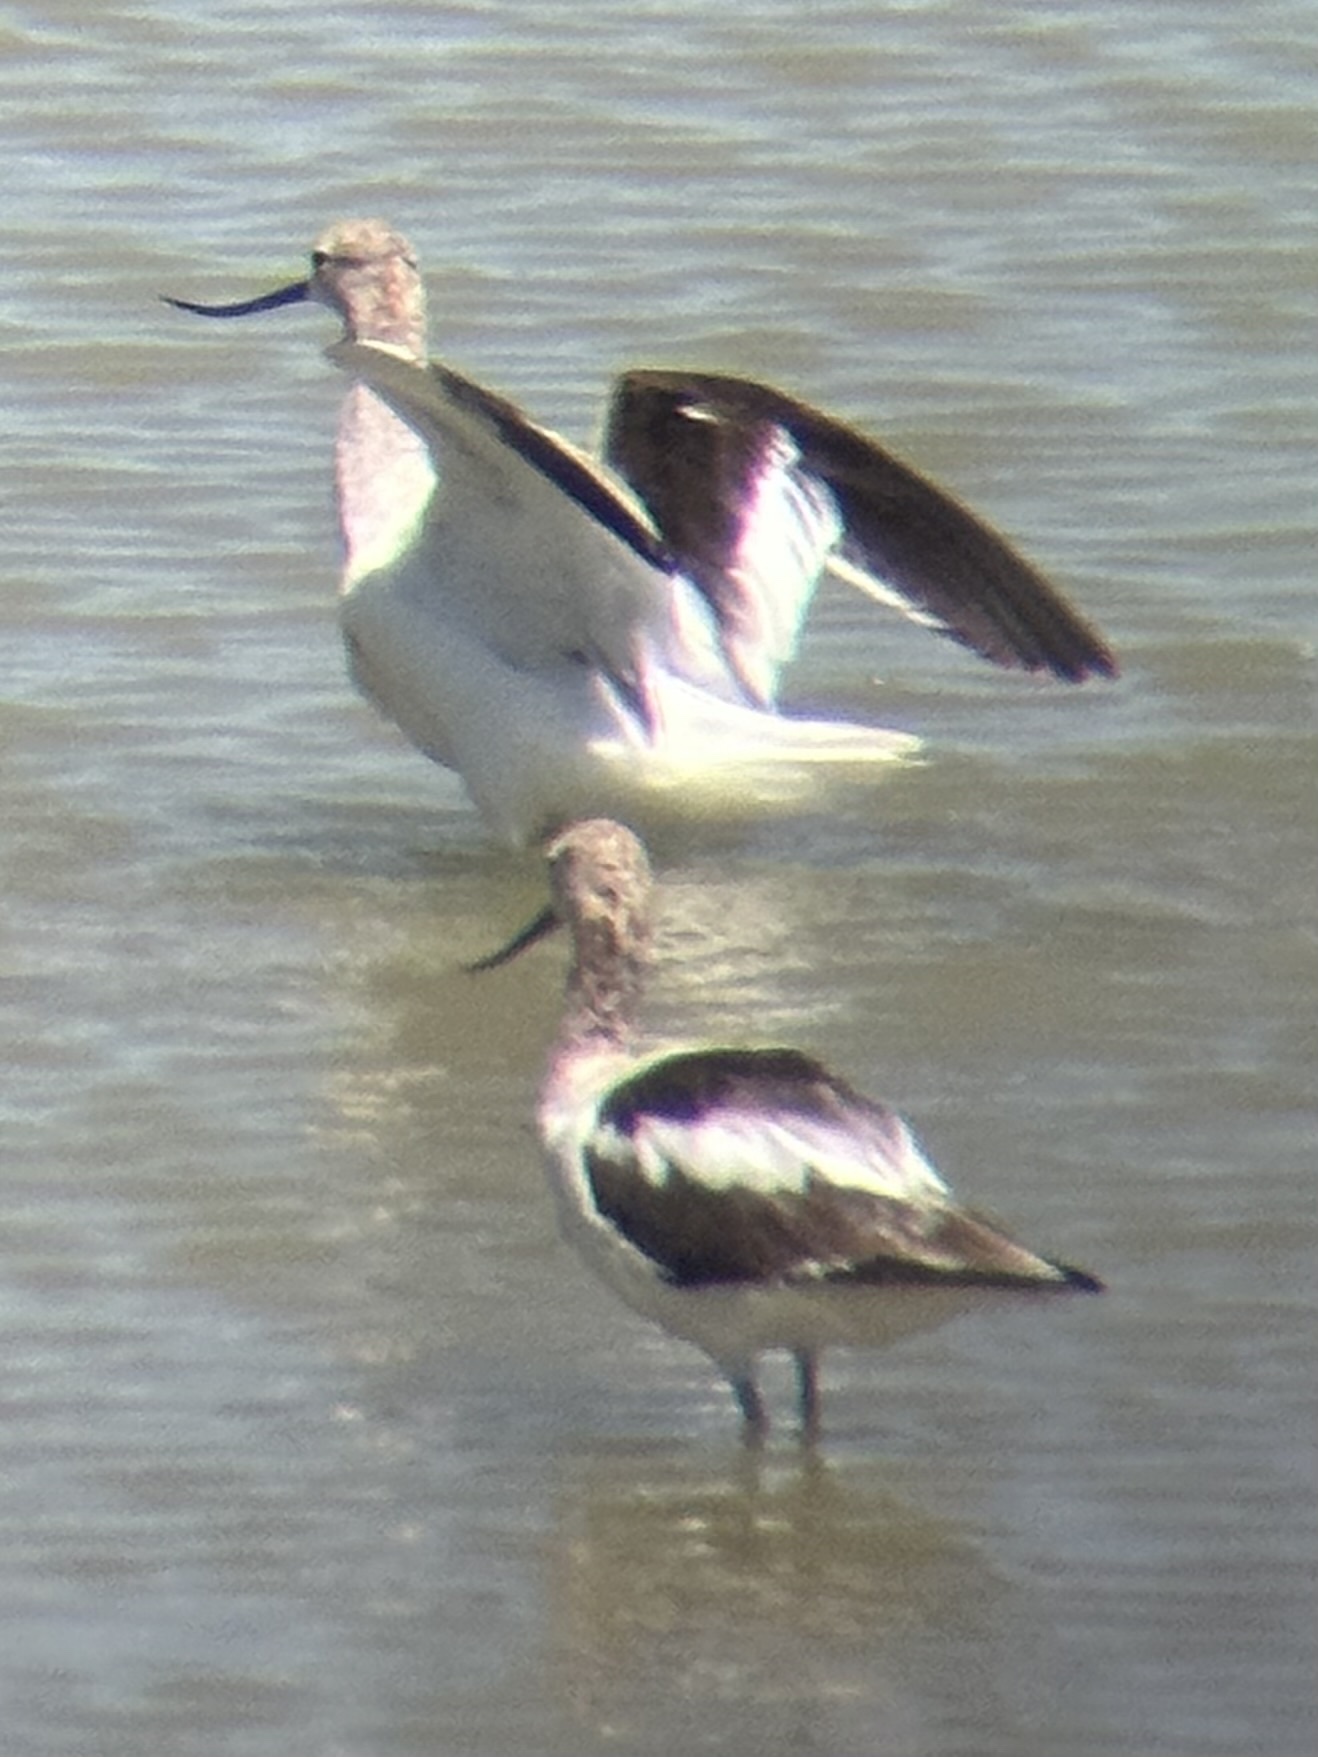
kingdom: Animalia
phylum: Chordata
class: Aves
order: Charadriiformes
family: Recurvirostridae
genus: Recurvirostra
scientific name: Recurvirostra americana
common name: American avocet
